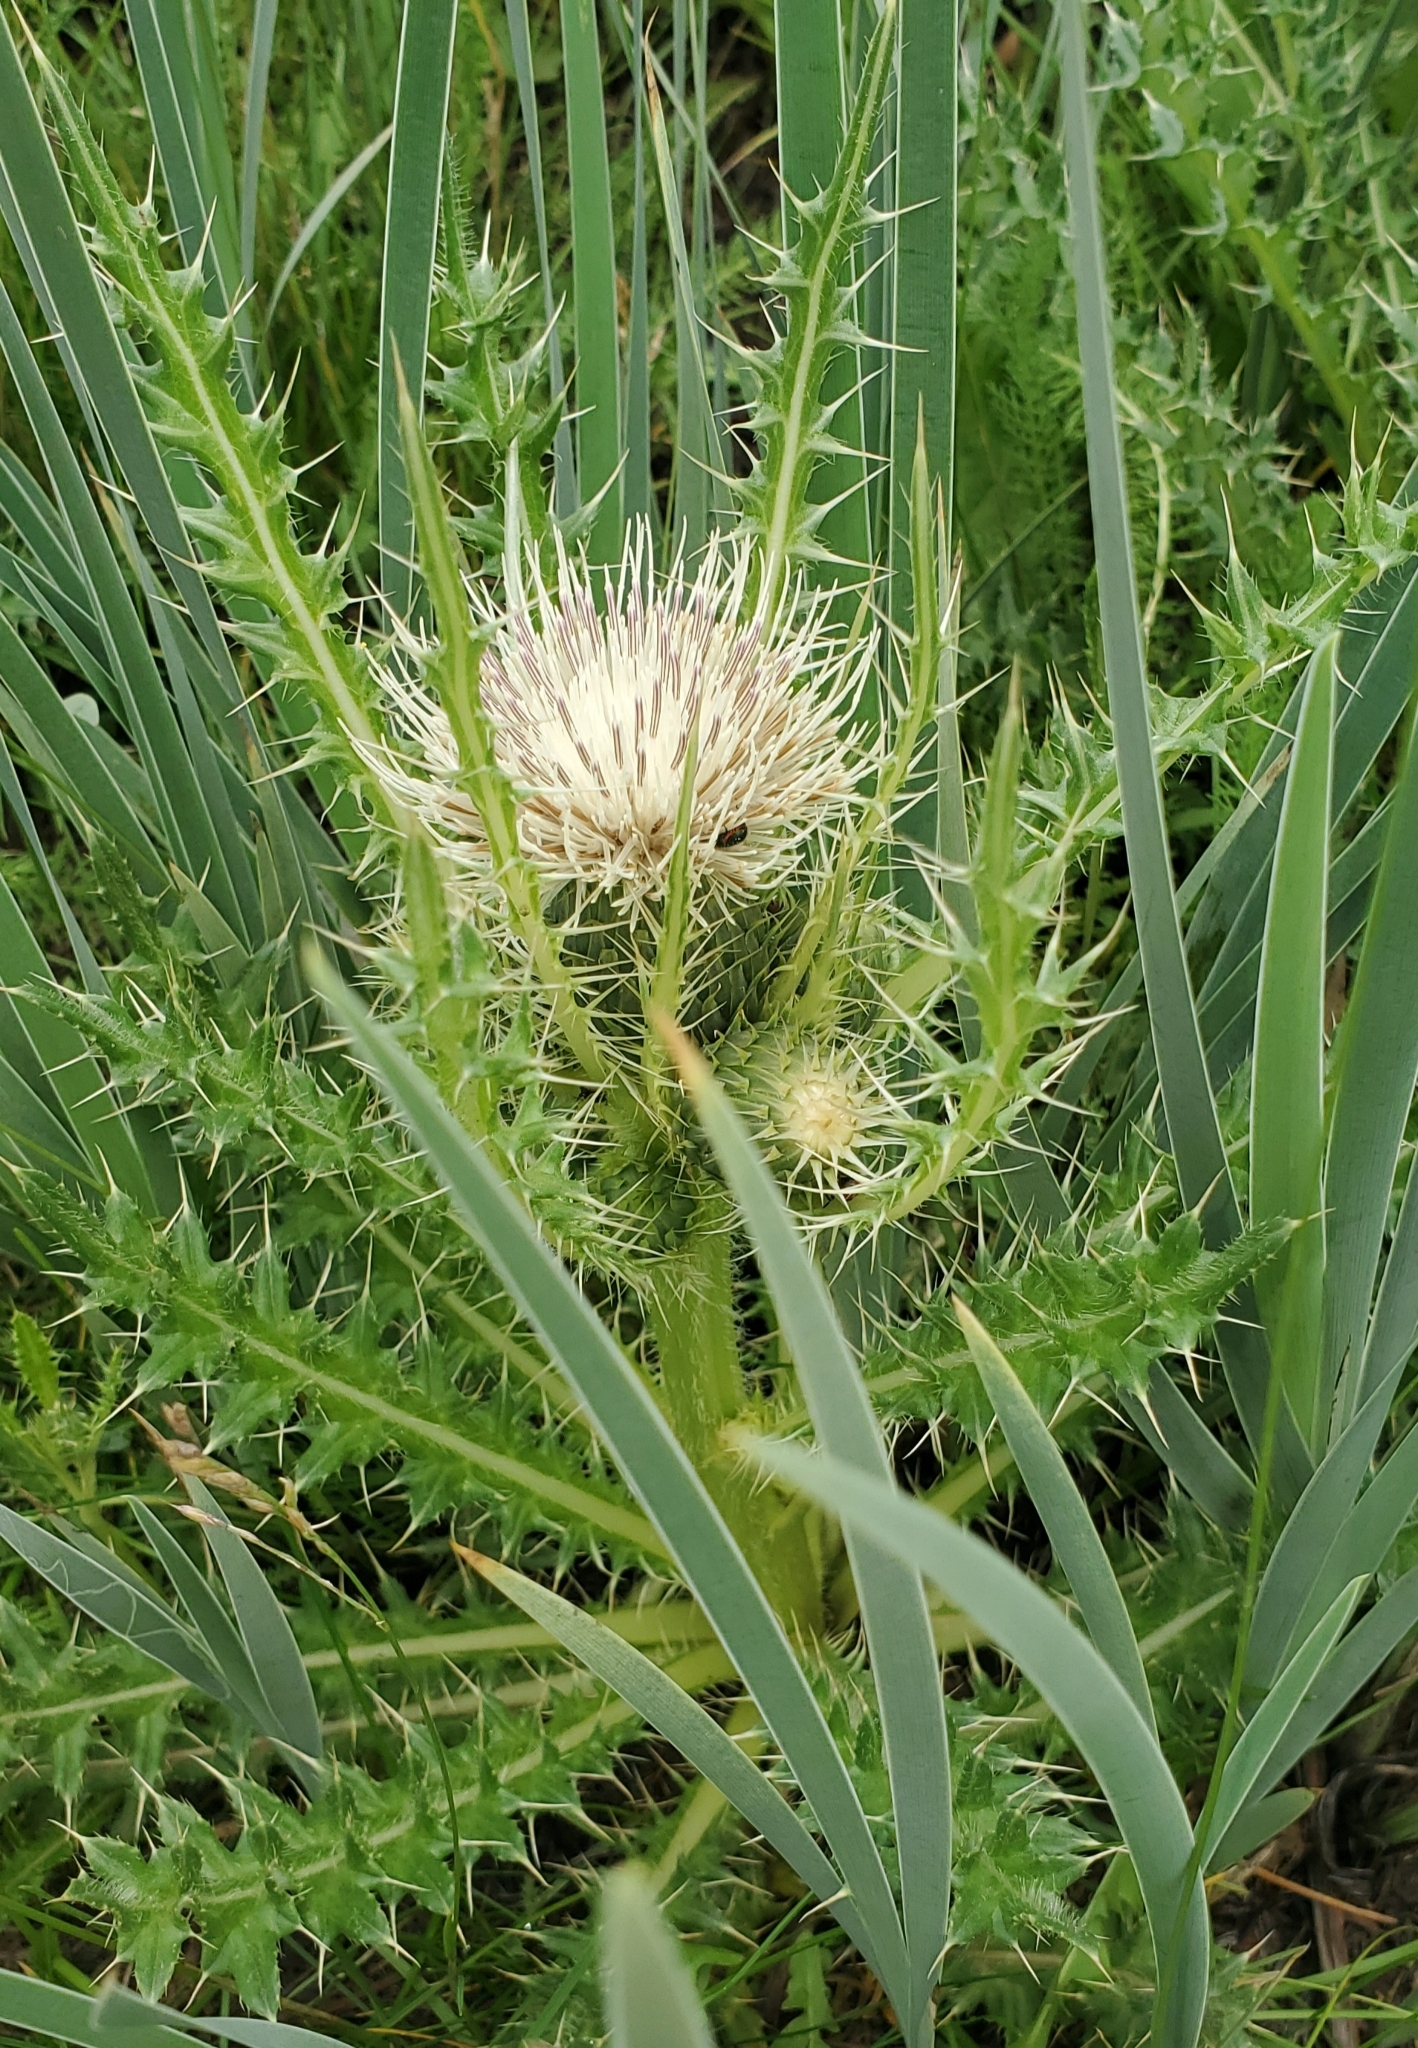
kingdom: Plantae
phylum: Tracheophyta
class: Magnoliopsida
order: Asterales
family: Asteraceae
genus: Cirsium
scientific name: Cirsium scariosum
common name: Meadow thistle
